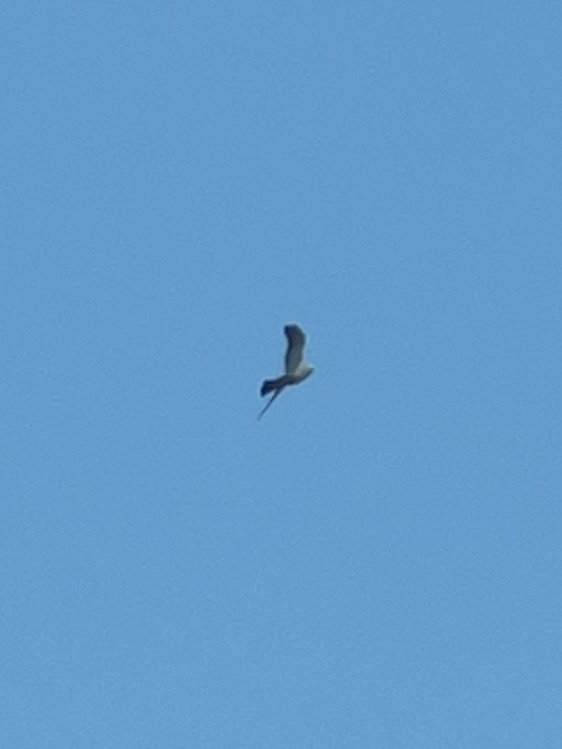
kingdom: Animalia
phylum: Chordata
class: Aves
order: Accipitriformes
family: Accipitridae
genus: Ictinia
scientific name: Ictinia mississippiensis
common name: Mississippi kite
